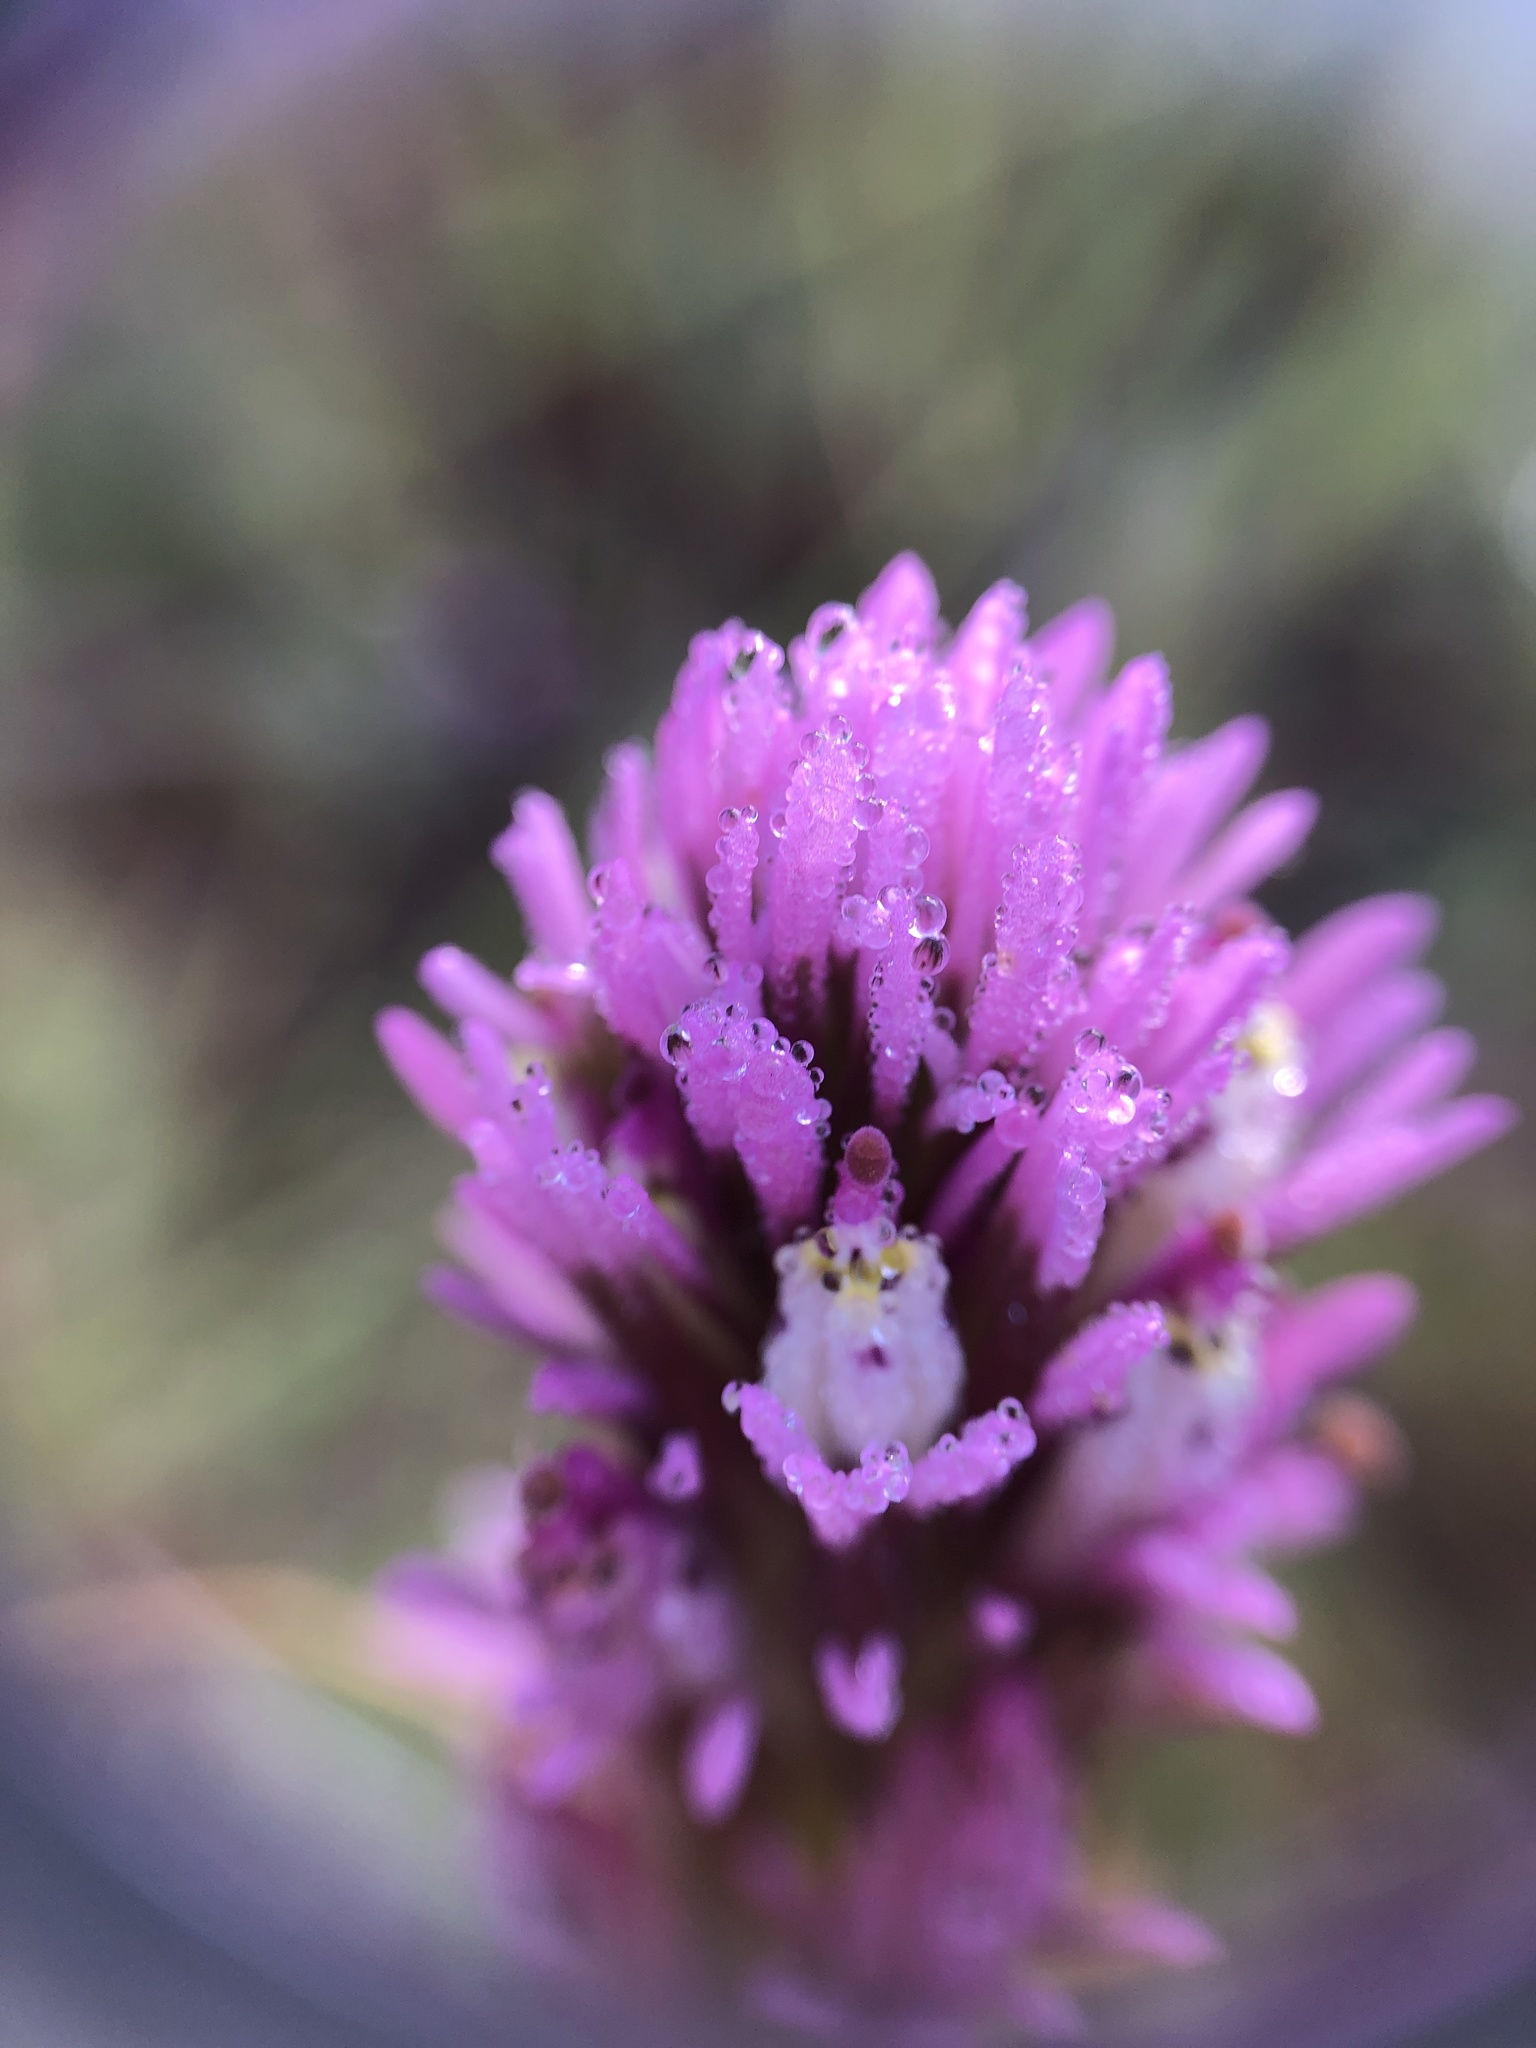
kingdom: Plantae
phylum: Tracheophyta
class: Magnoliopsida
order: Lamiales
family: Orobanchaceae
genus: Castilleja
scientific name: Castilleja densiflora
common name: Dense-flower indian paintbrush
